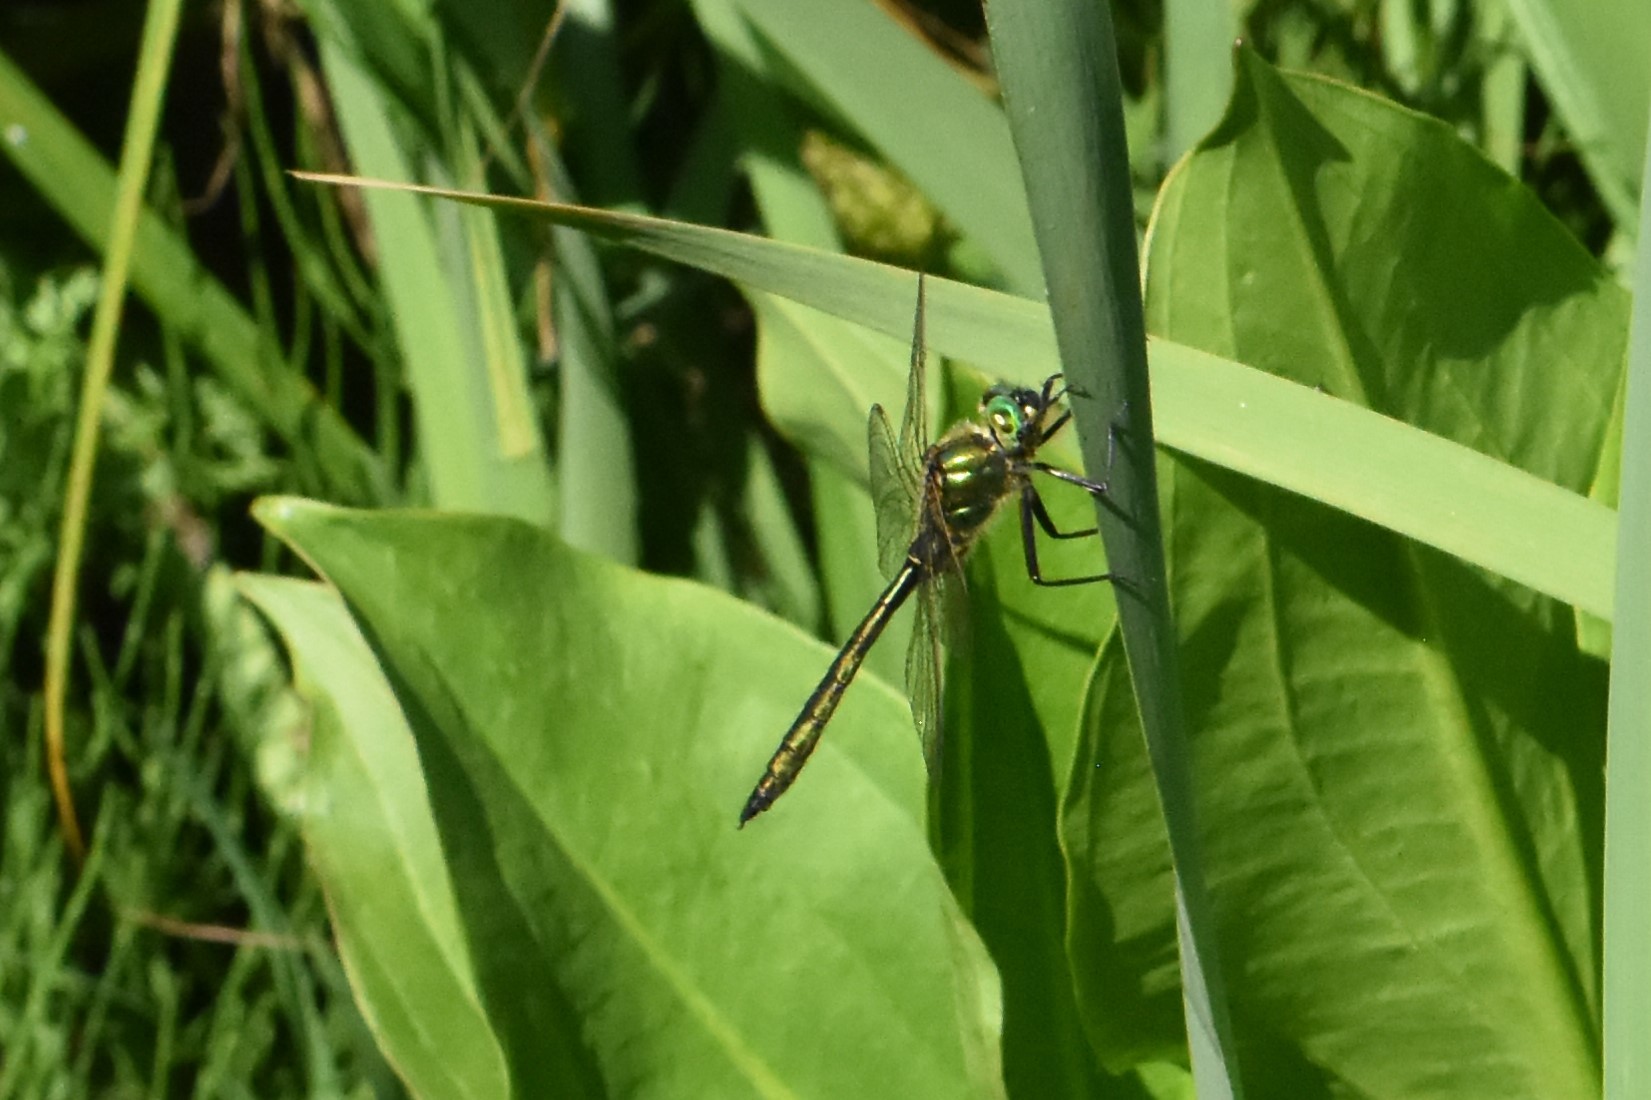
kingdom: Animalia
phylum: Arthropoda
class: Insecta
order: Odonata
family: Corduliidae
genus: Somatochlora
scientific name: Somatochlora metallica
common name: Brilliant emerald
